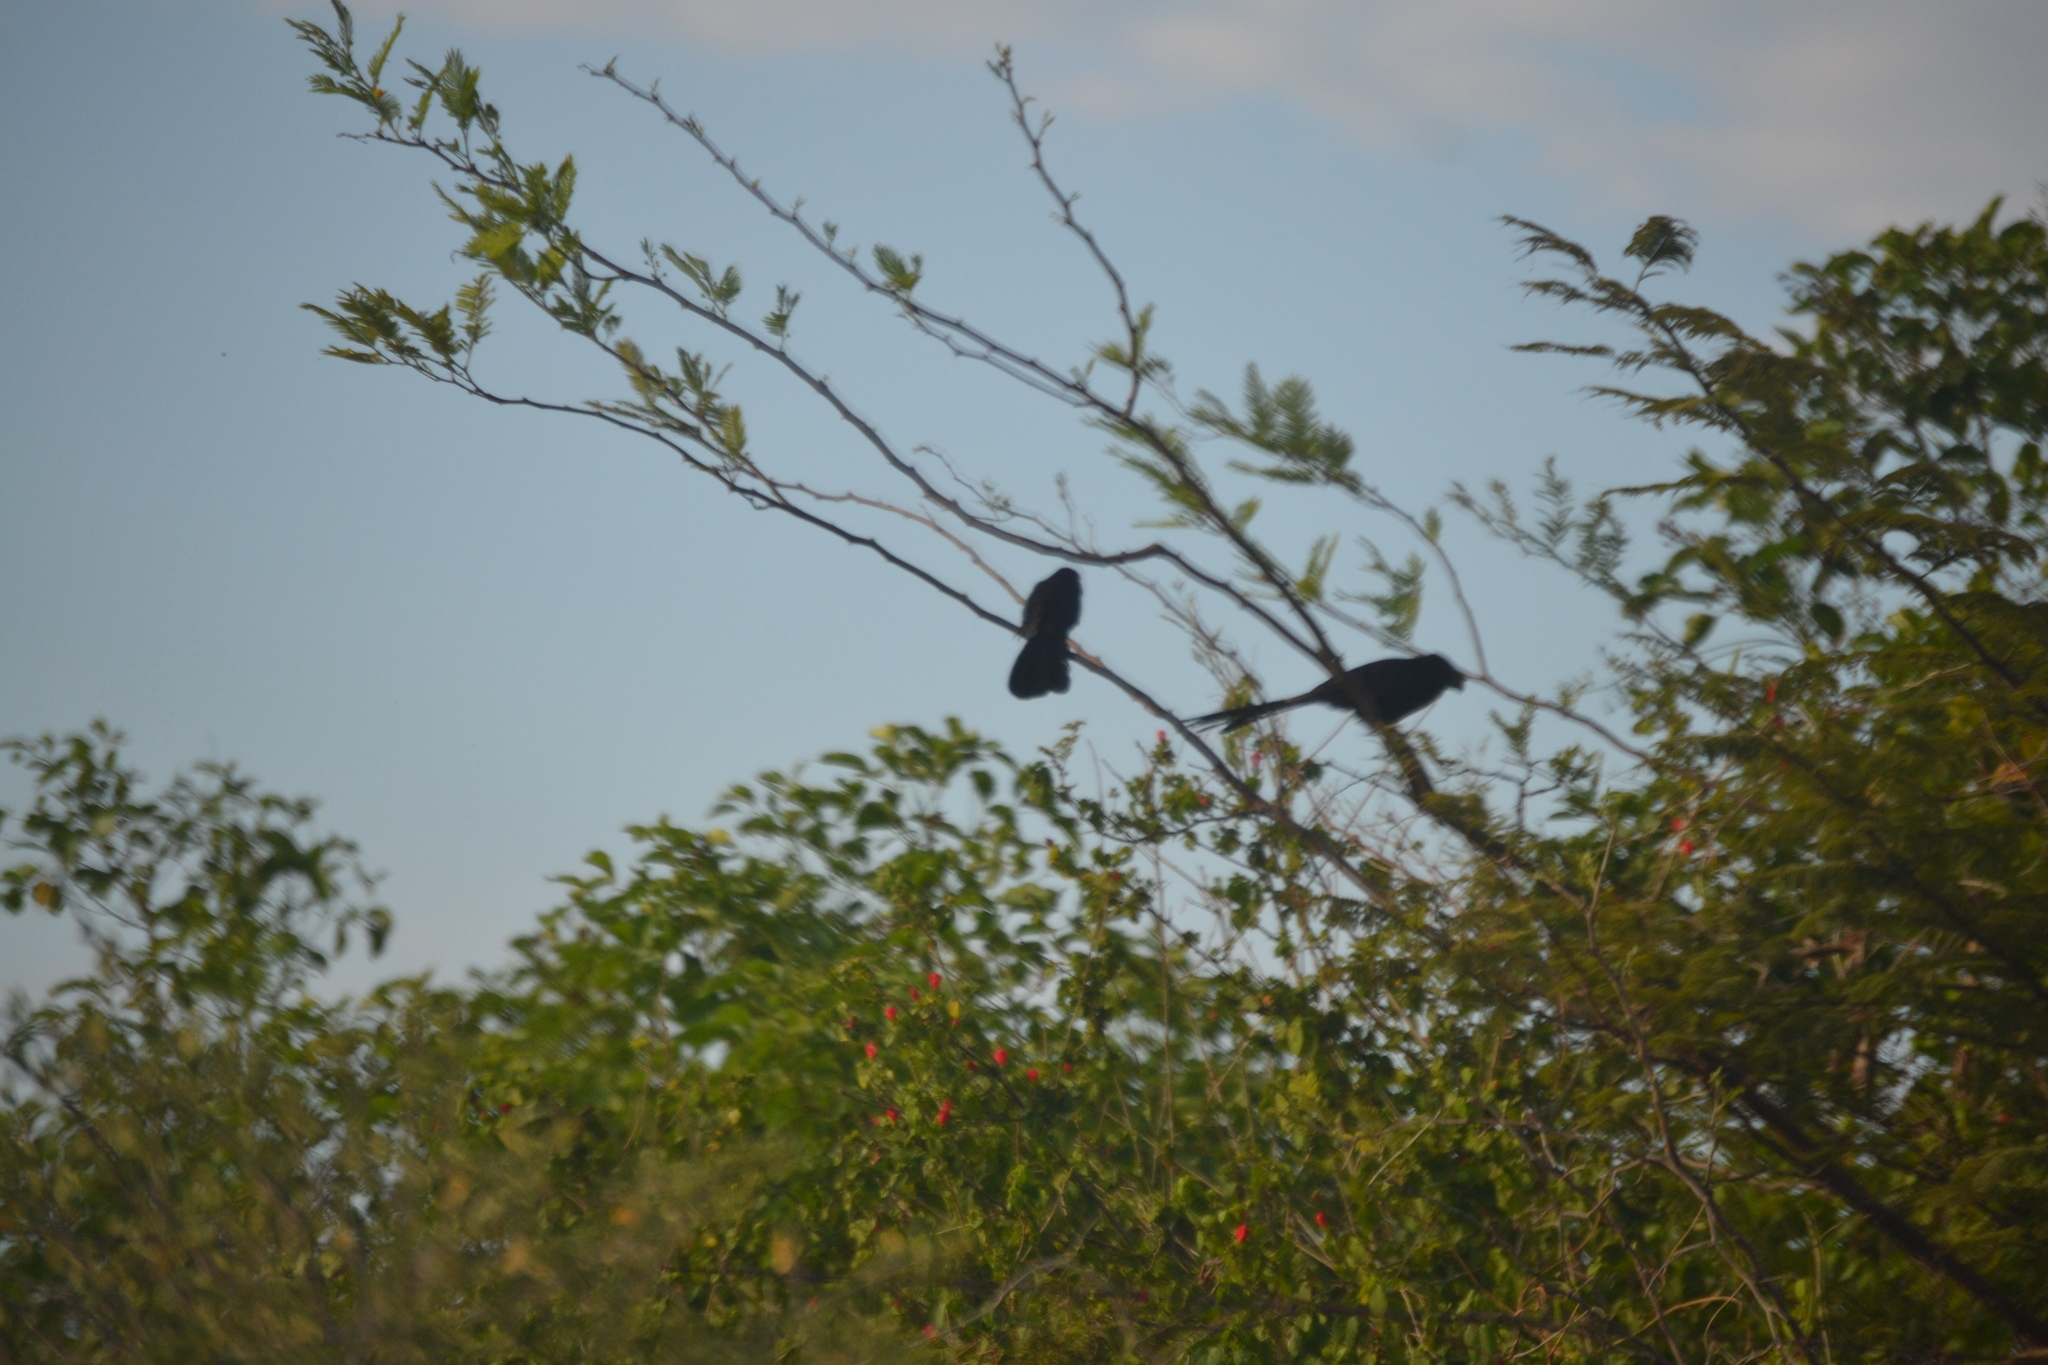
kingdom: Animalia
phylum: Chordata
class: Aves
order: Cuculiformes
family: Cuculidae
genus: Crotophaga
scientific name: Crotophaga sulcirostris
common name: Groove-billed ani
